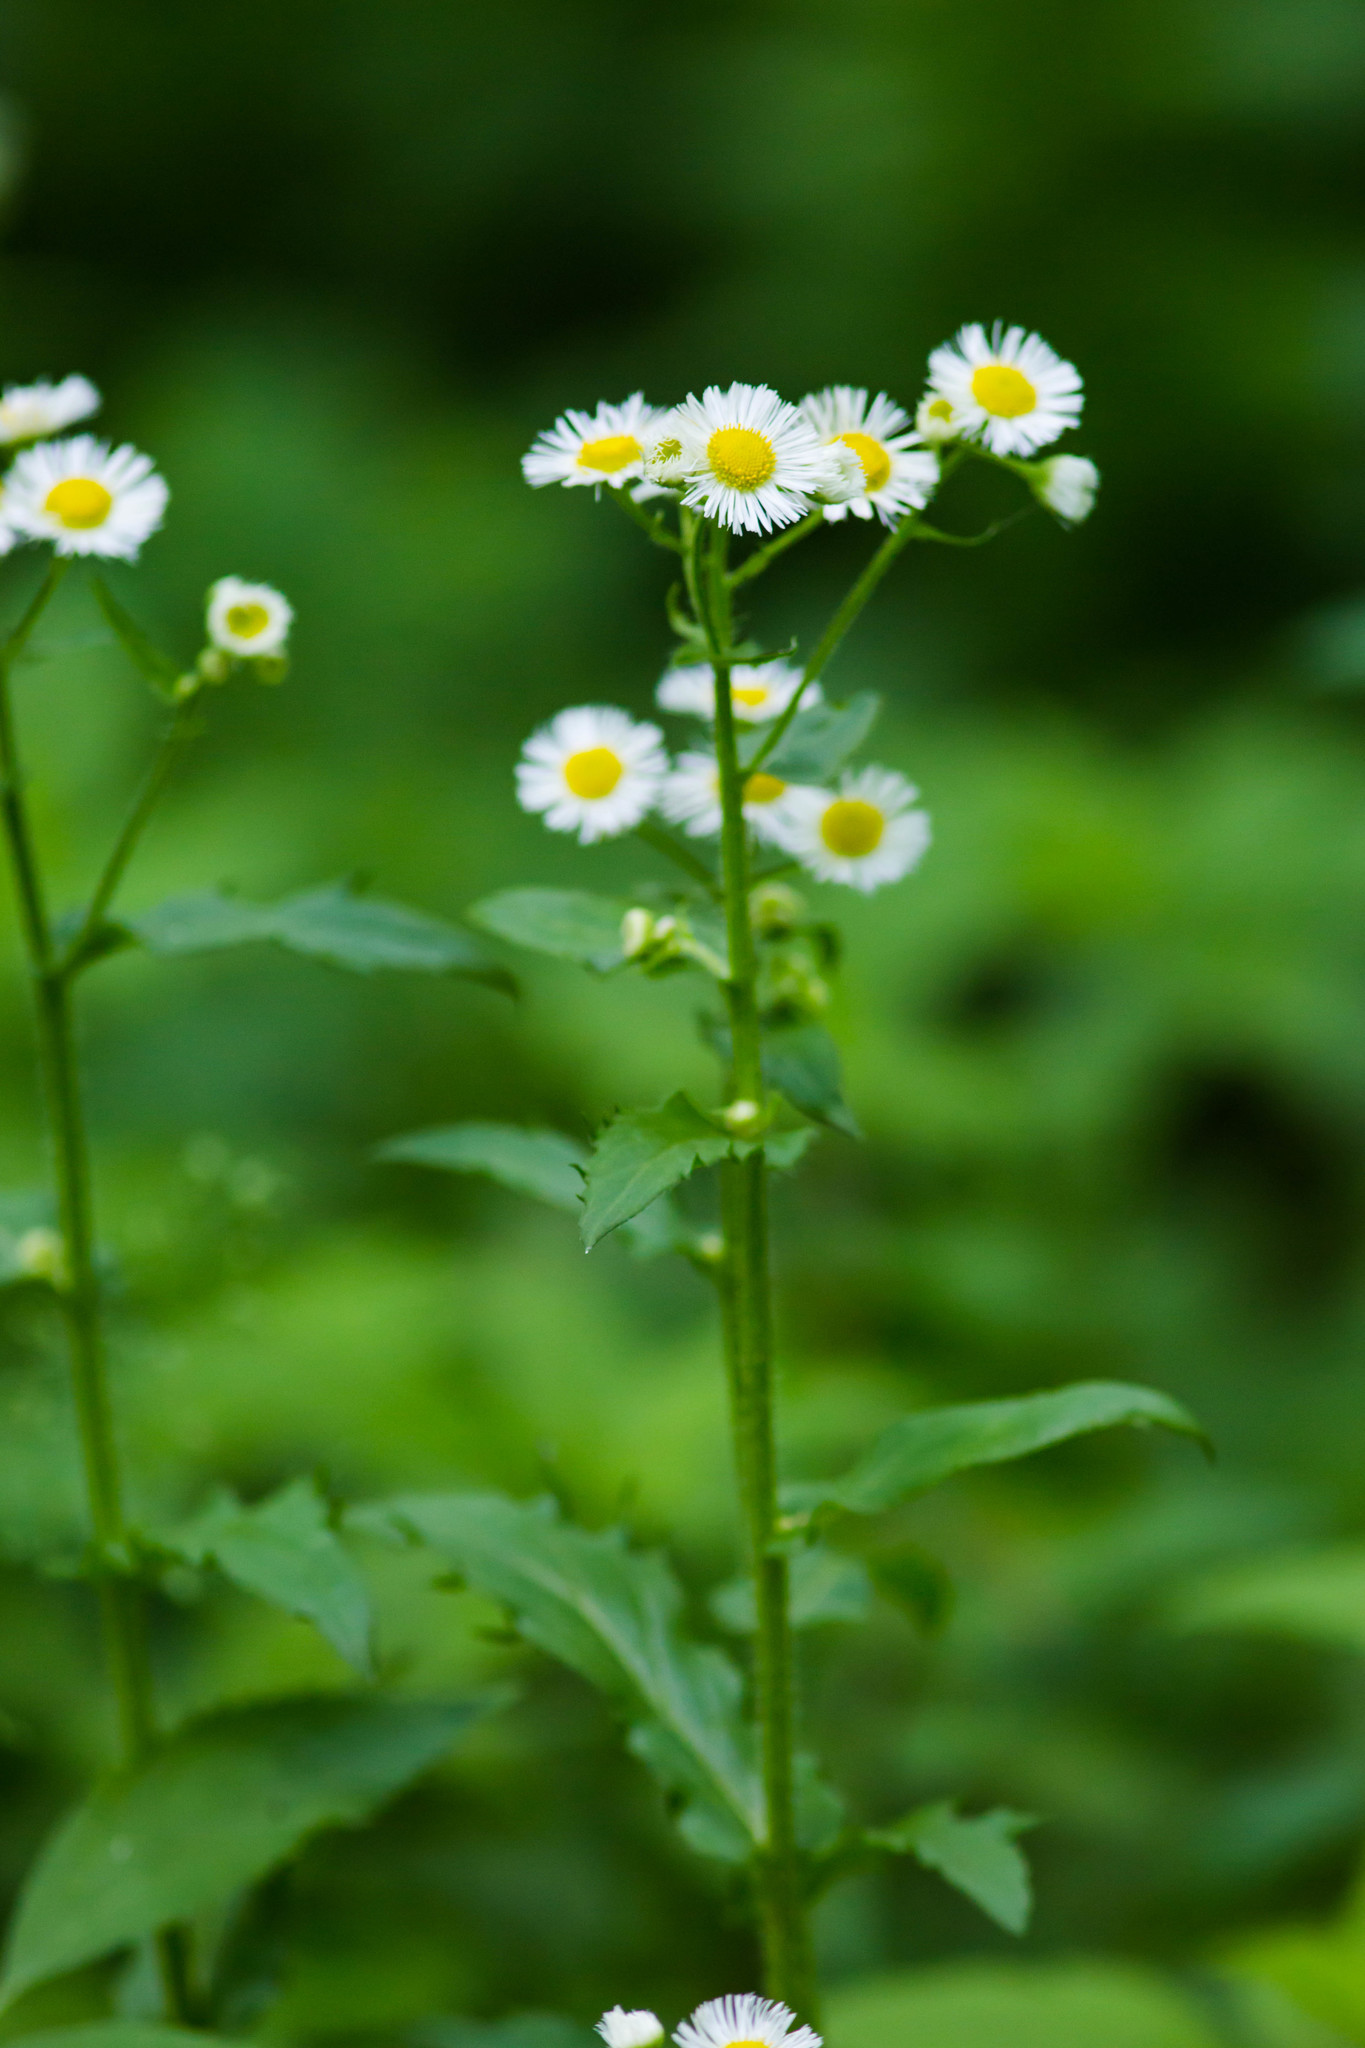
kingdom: Plantae
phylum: Tracheophyta
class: Magnoliopsida
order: Asterales
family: Asteraceae
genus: Erigeron
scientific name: Erigeron annuus
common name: Tall fleabane
